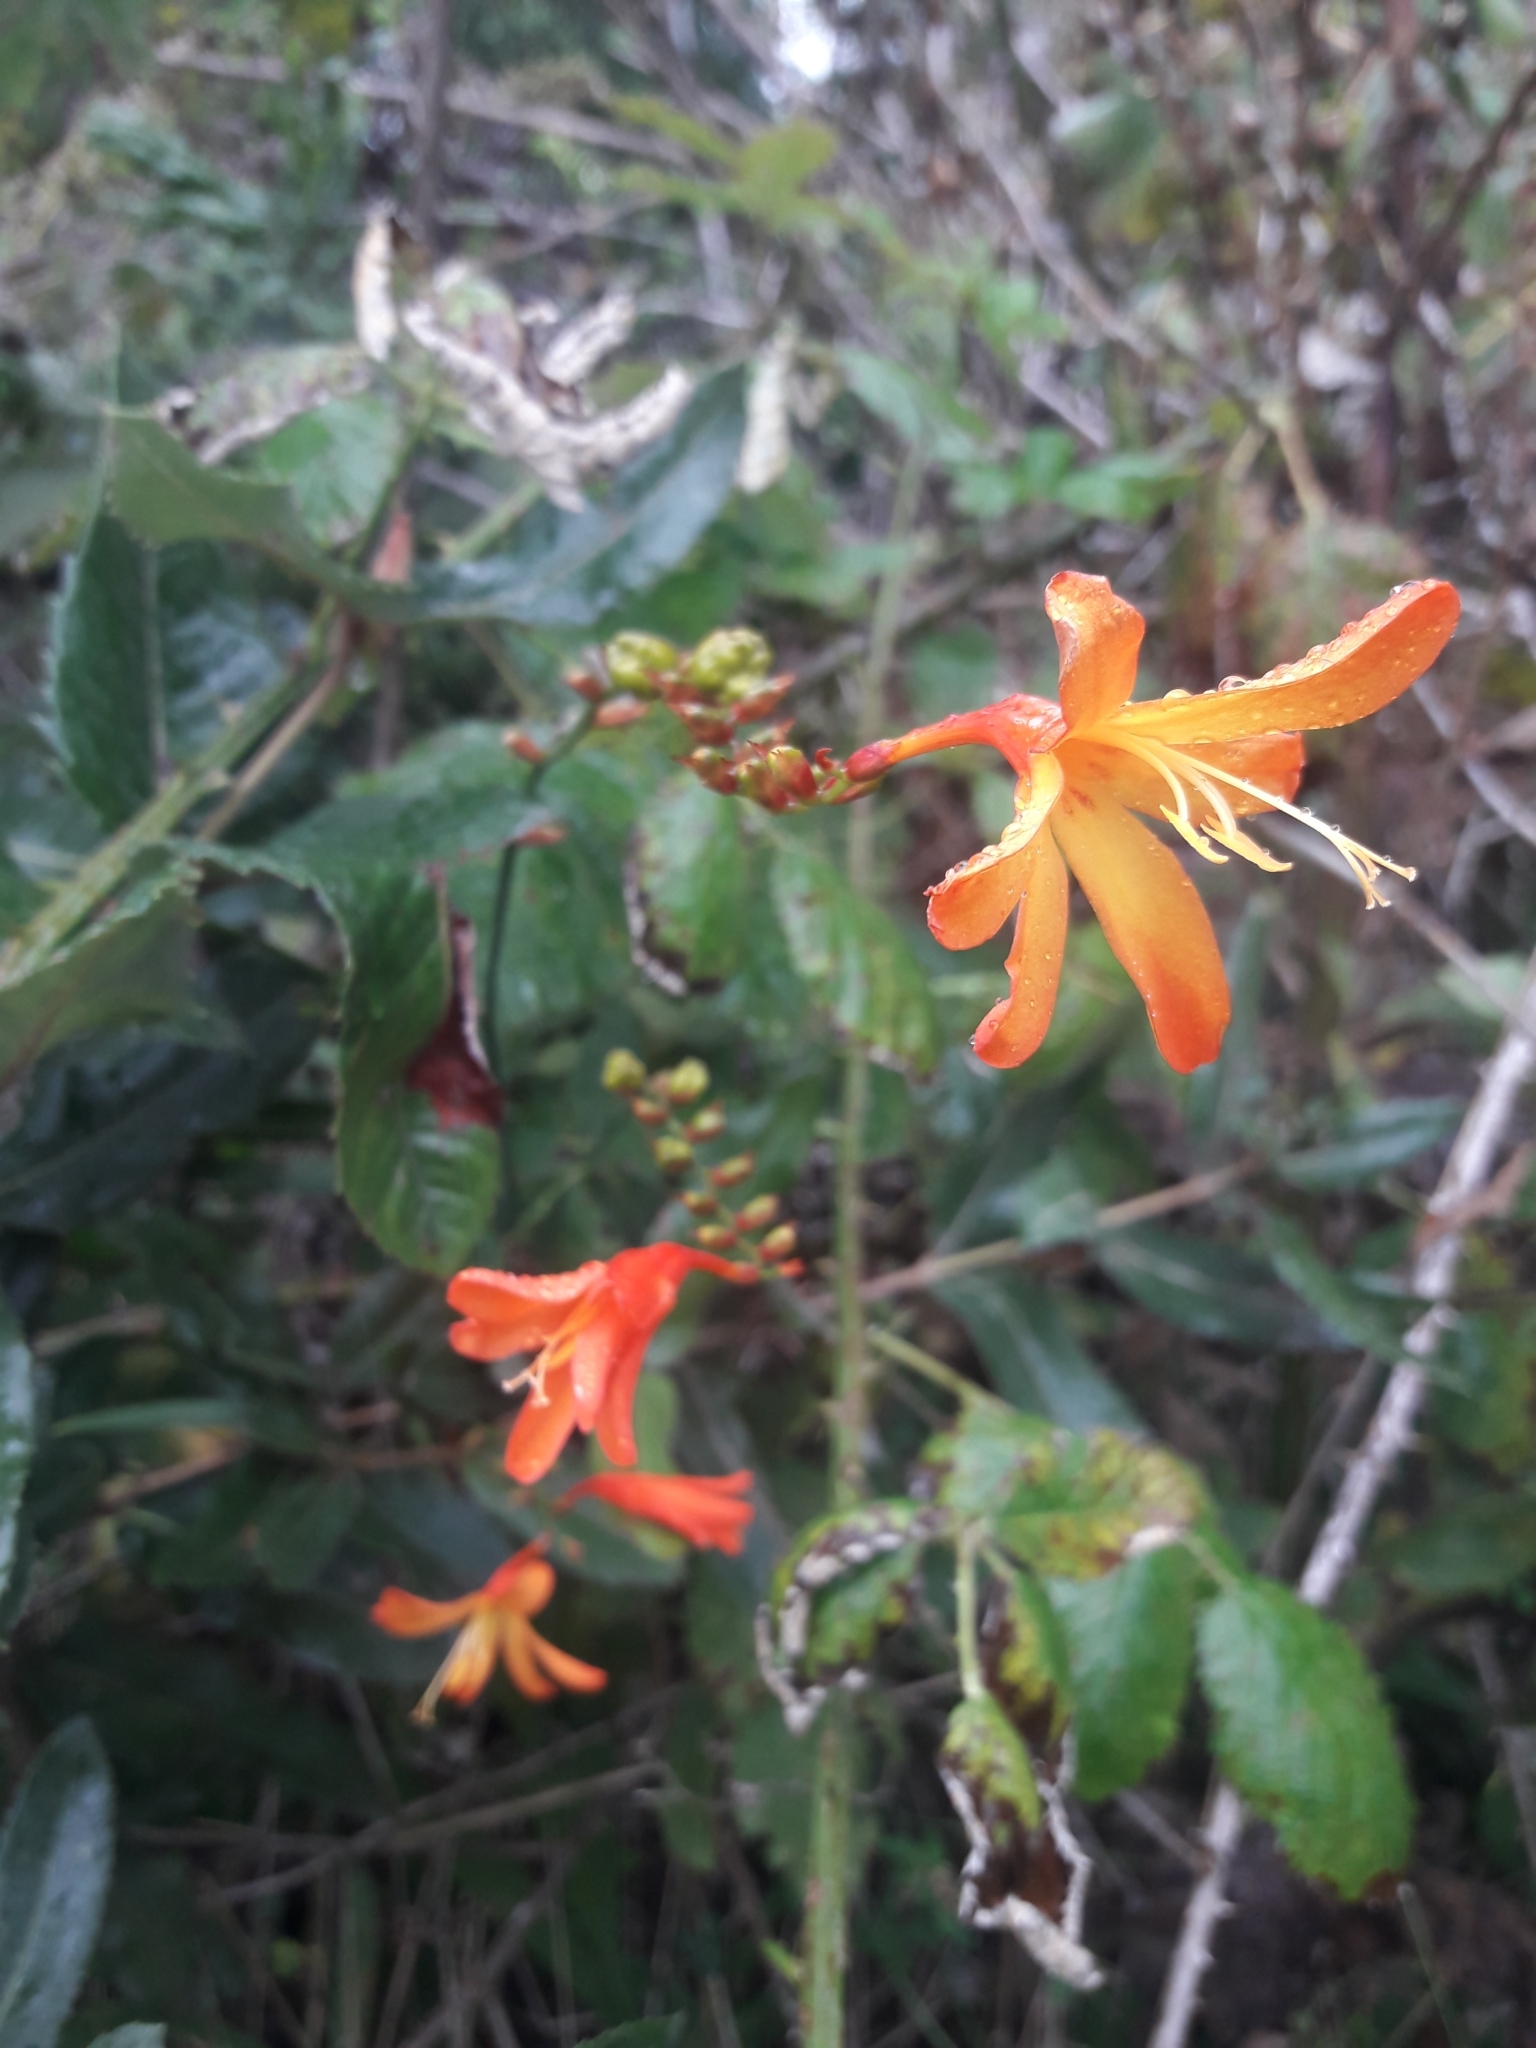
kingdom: Plantae
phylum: Tracheophyta
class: Liliopsida
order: Asparagales
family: Iridaceae
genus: Crocosmia
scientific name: Crocosmia crocosmiiflora
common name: Montbretia
